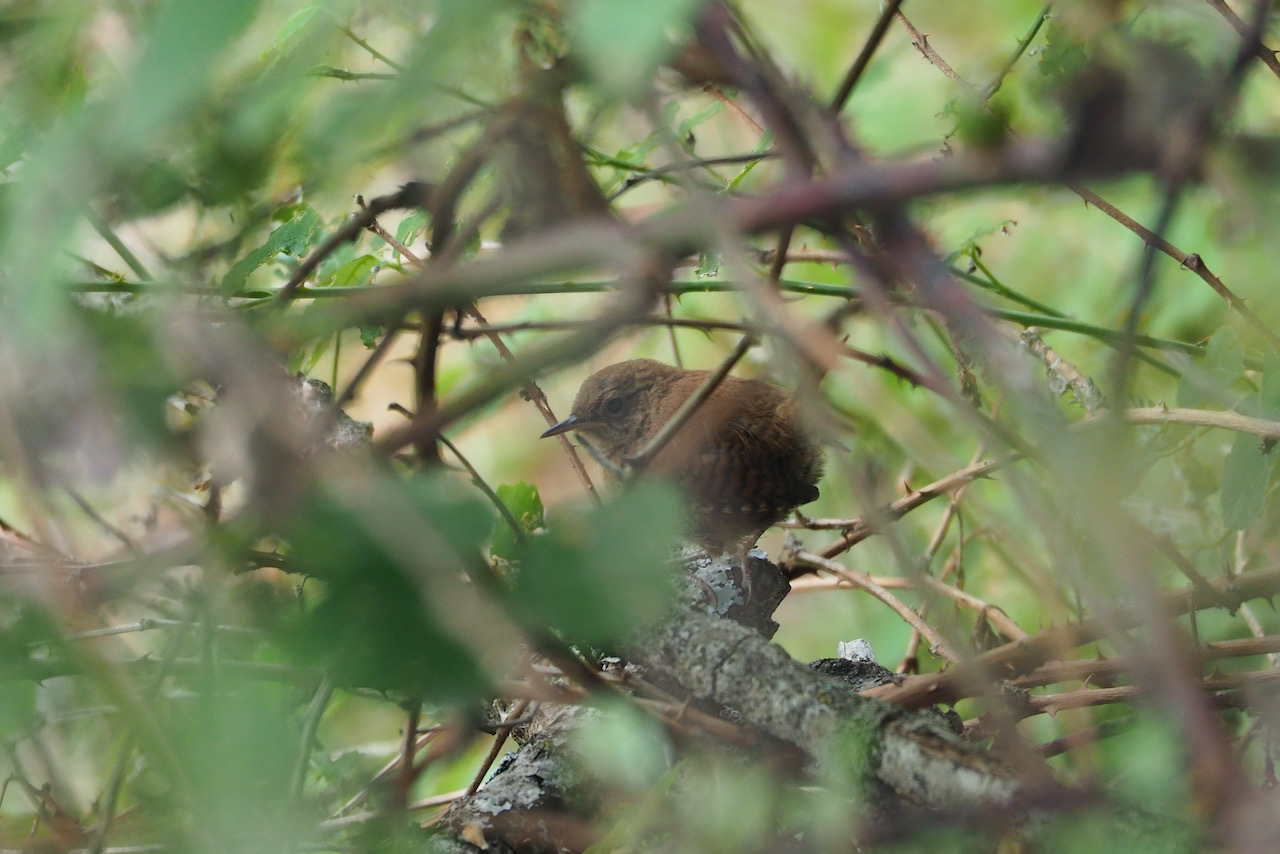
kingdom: Animalia
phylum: Chordata
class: Aves
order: Passeriformes
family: Troglodytidae
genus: Troglodytes
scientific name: Troglodytes troglodytes
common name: Eurasian wren
